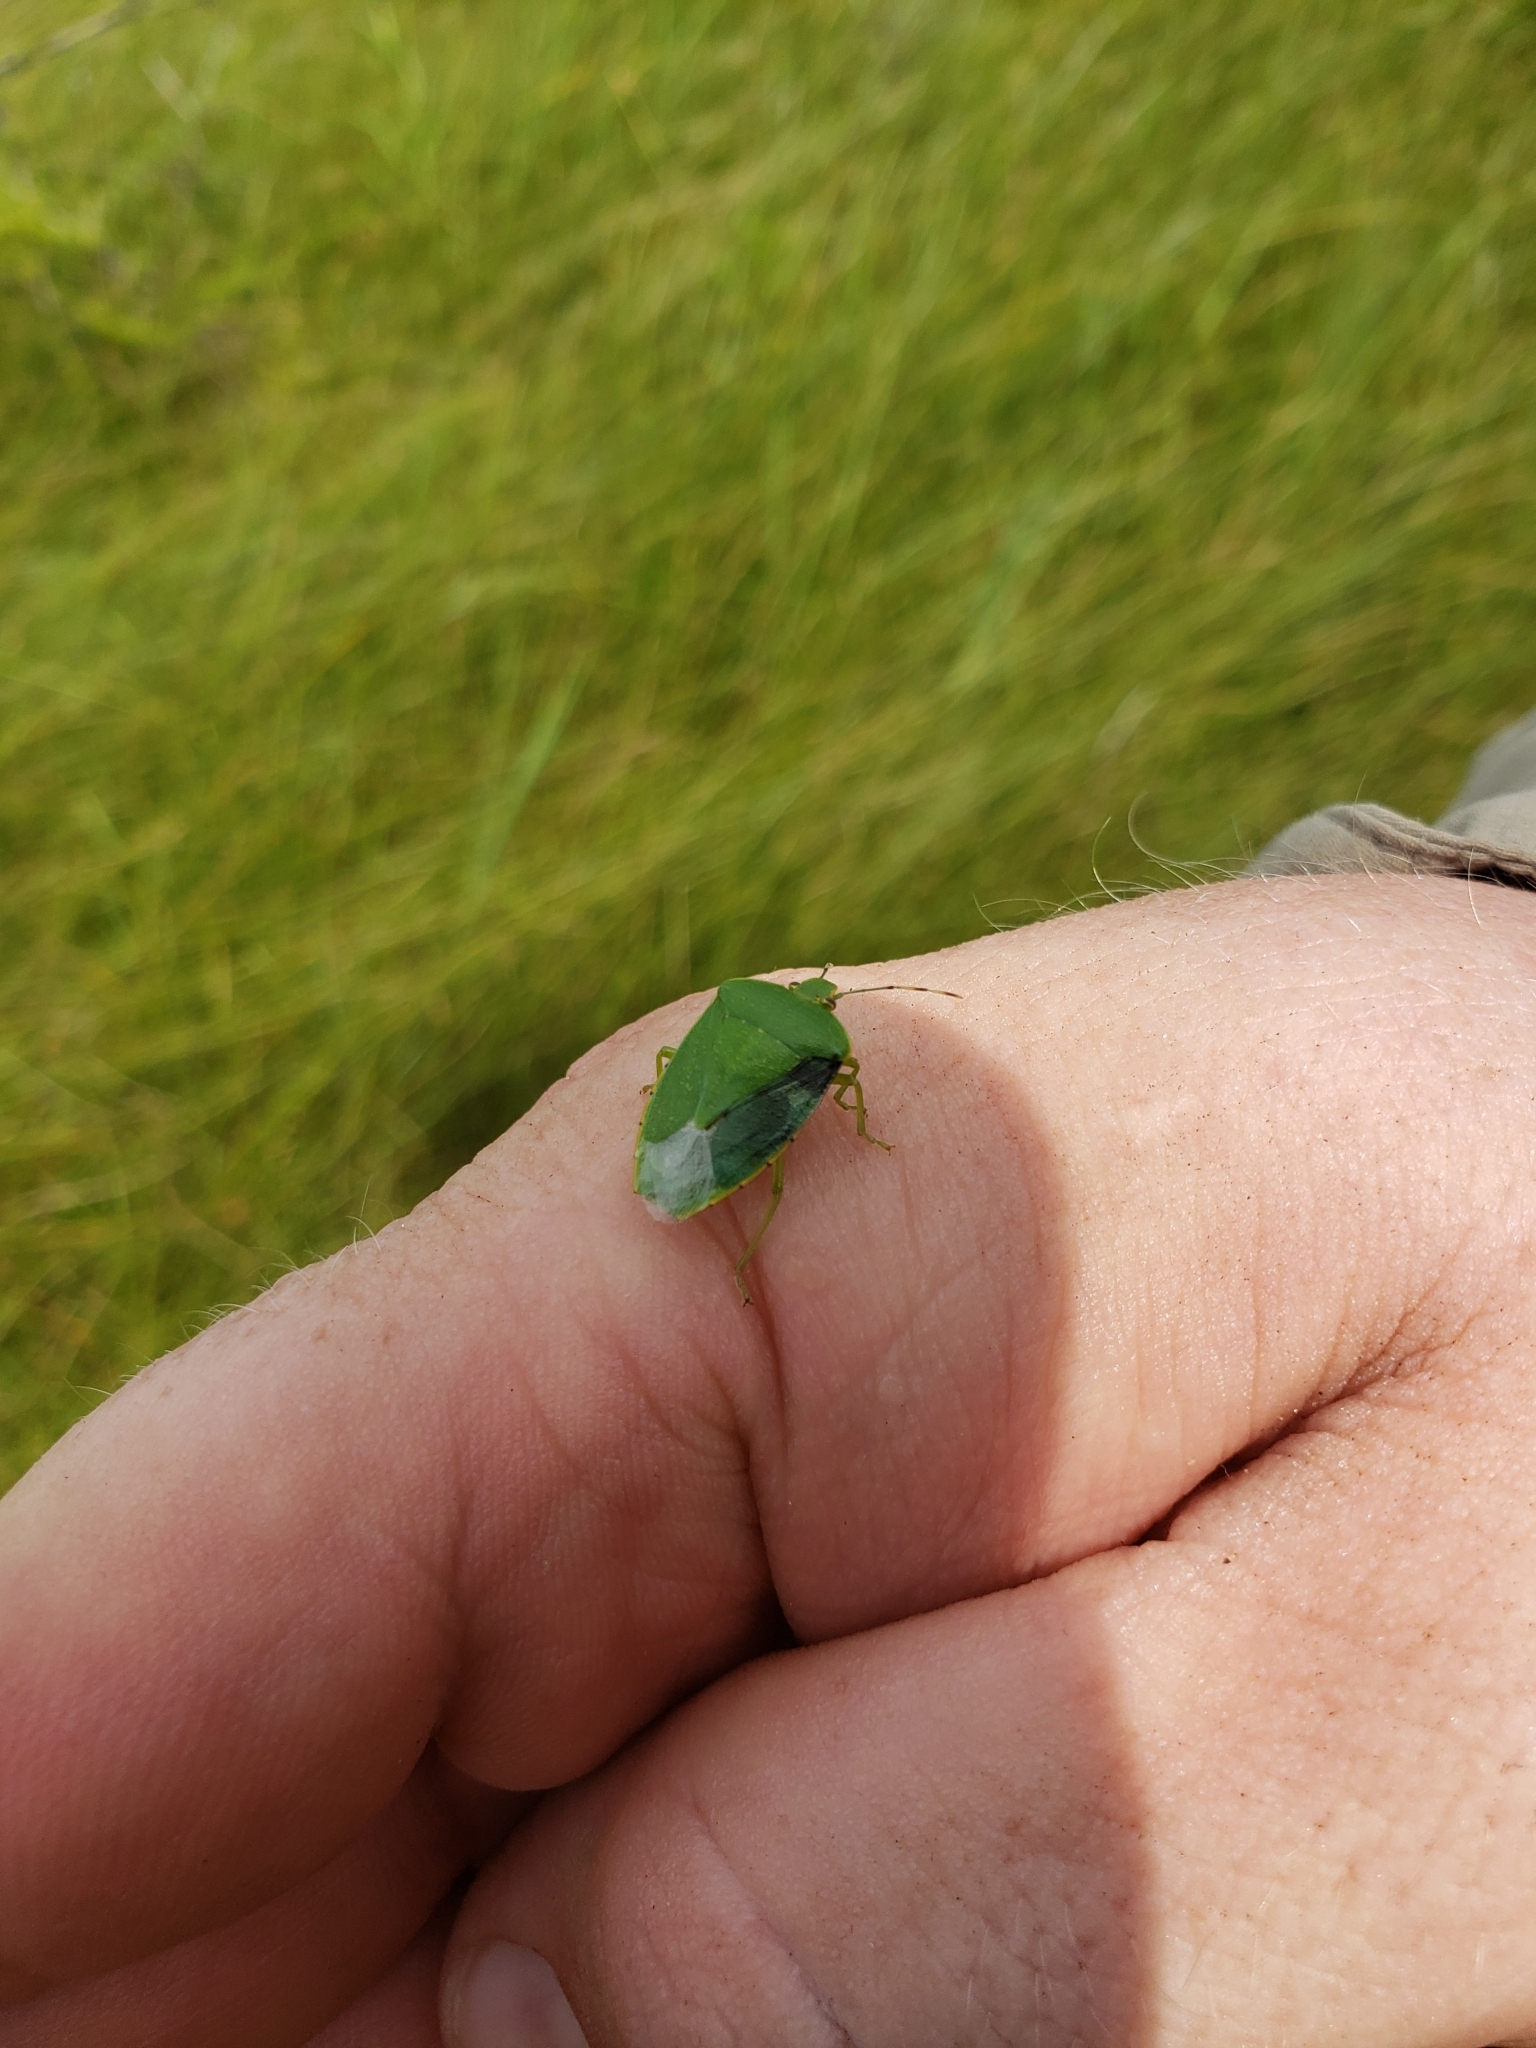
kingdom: Animalia
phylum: Arthropoda
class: Insecta
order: Hemiptera
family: Pentatomidae
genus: Chinavia
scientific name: Chinavia hilaris
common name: Green stink bug
